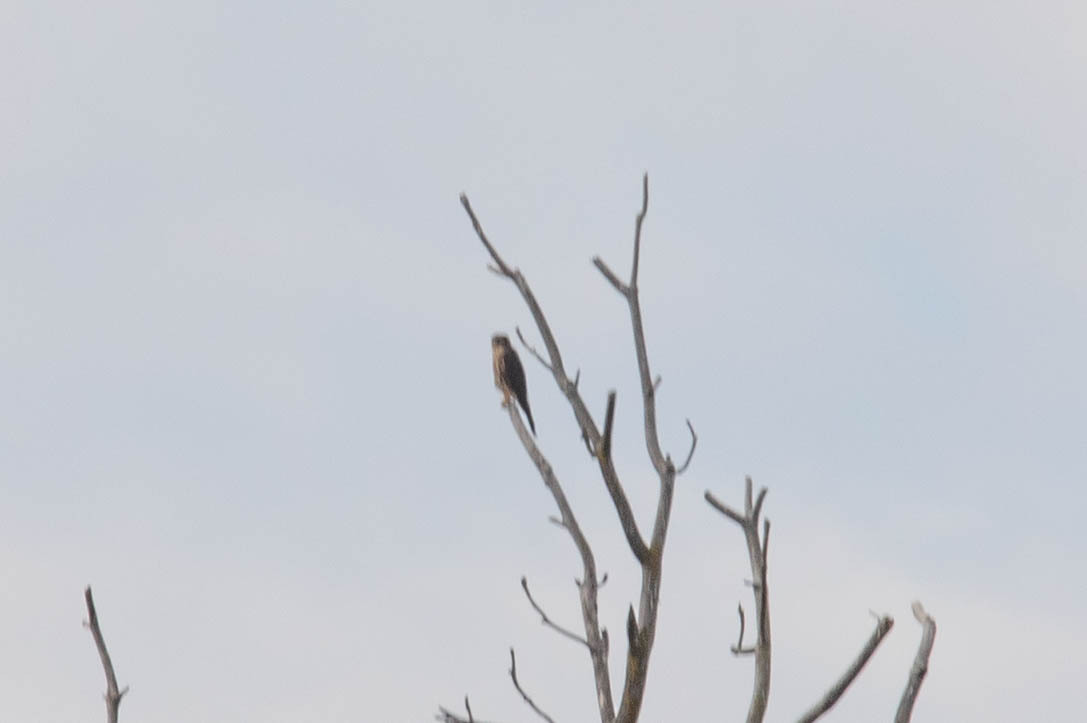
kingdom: Animalia
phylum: Chordata
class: Aves
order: Falconiformes
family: Falconidae
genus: Falco
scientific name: Falco columbarius
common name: Merlin
